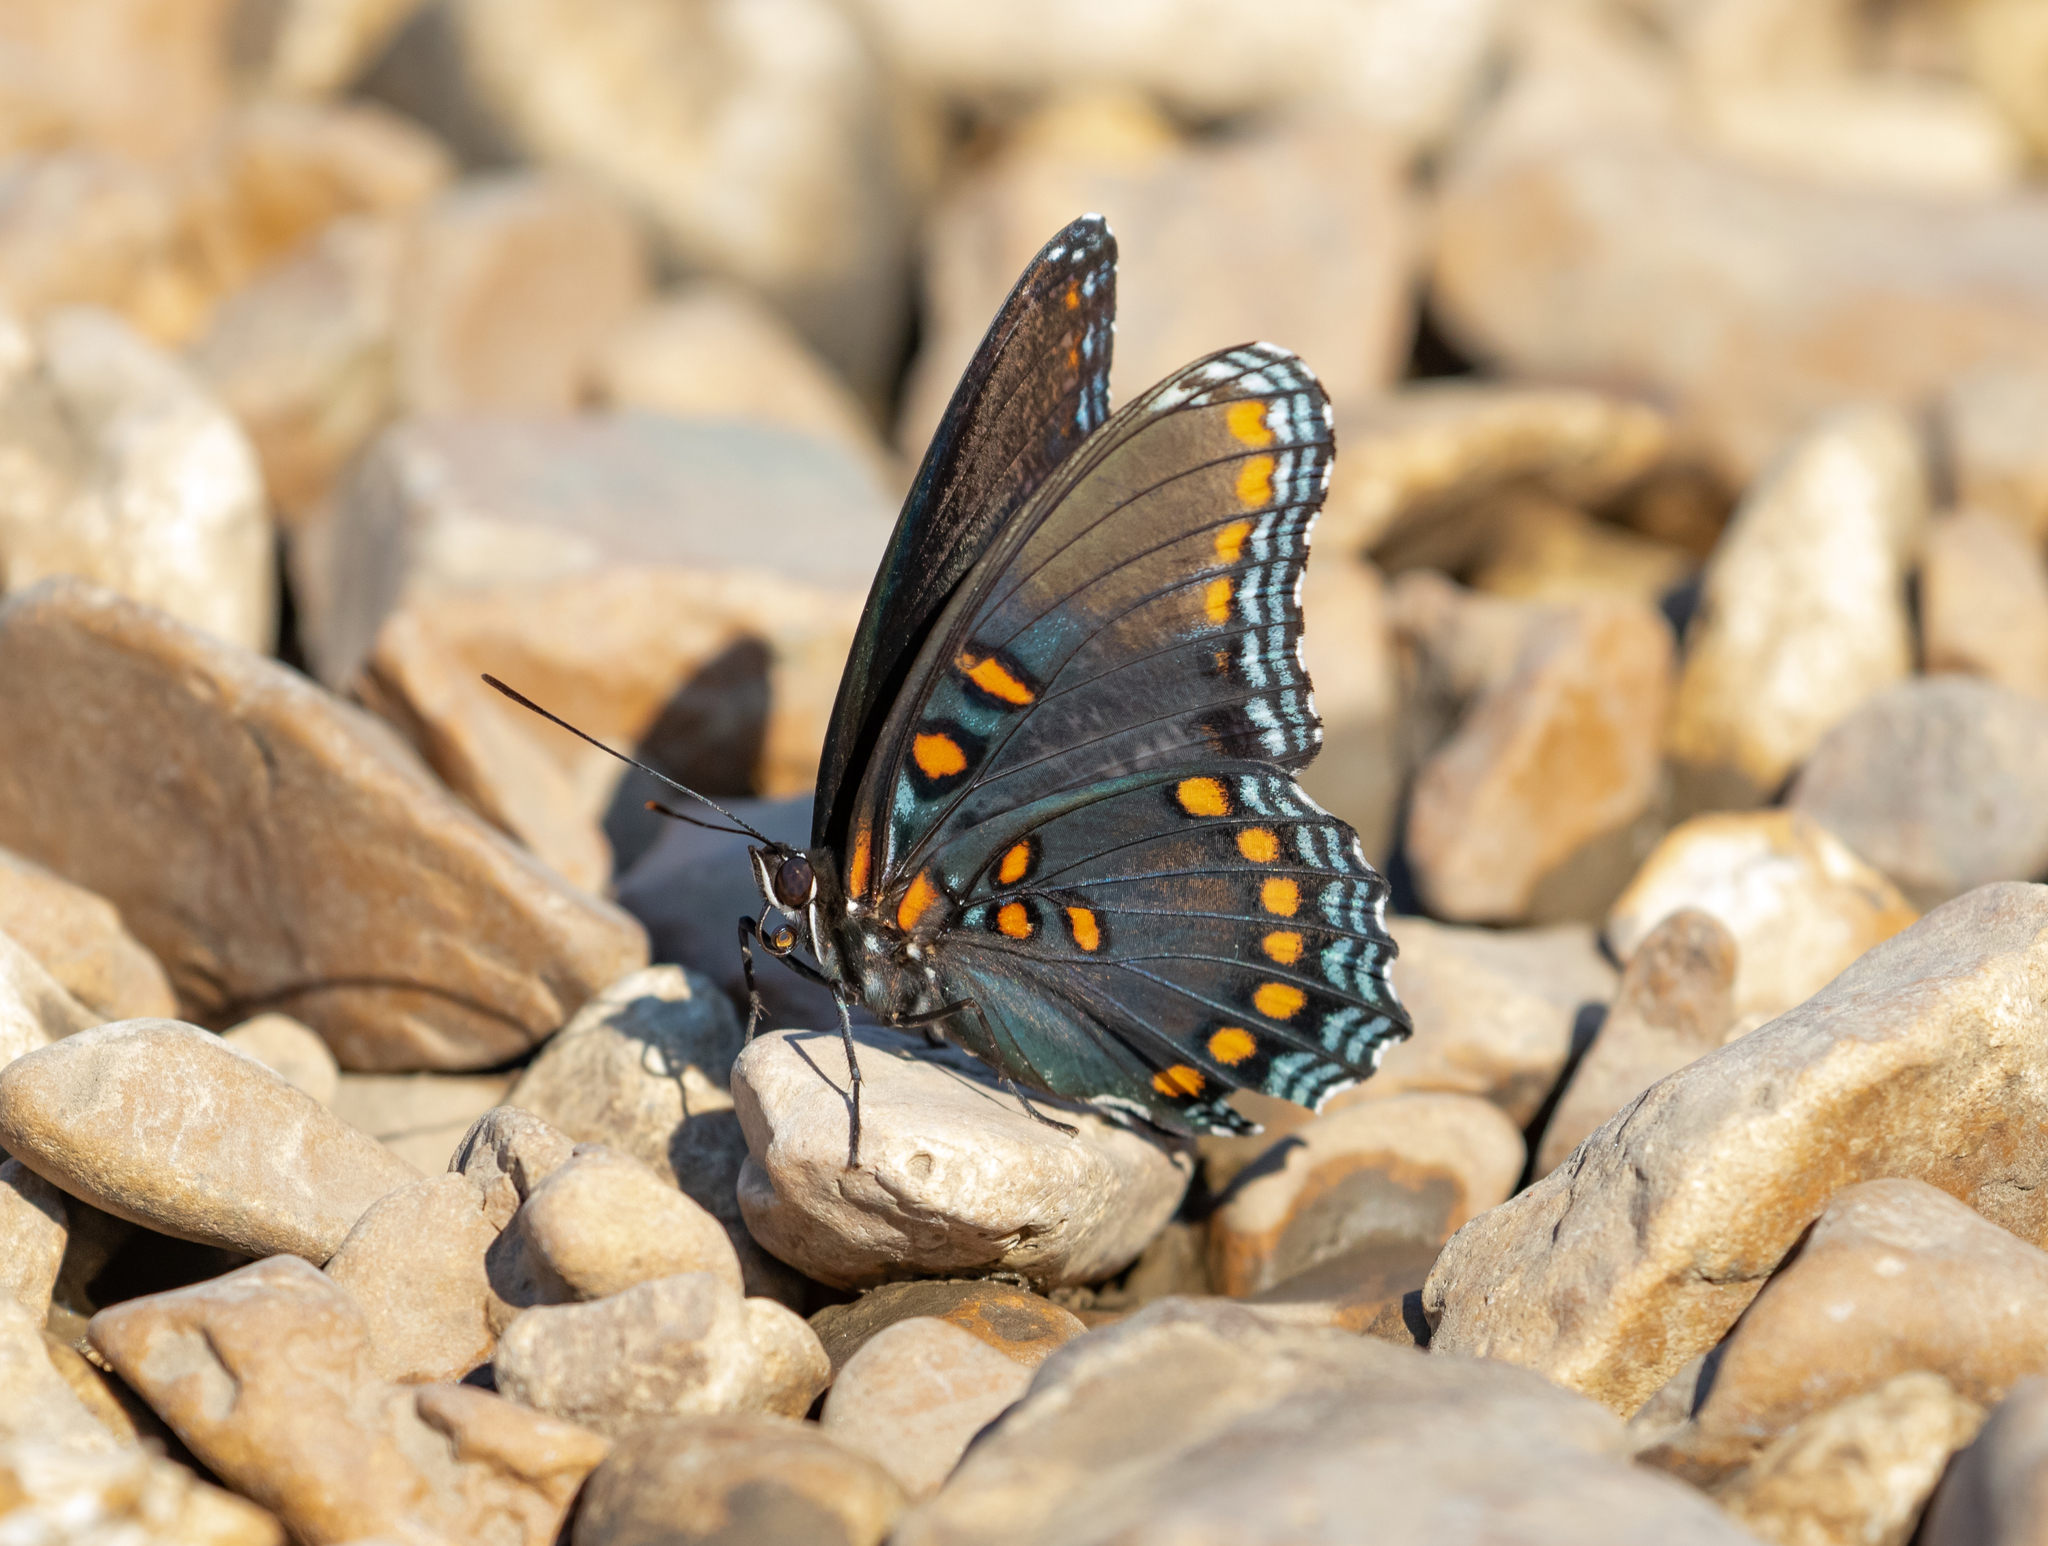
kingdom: Animalia
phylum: Arthropoda
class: Insecta
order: Lepidoptera
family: Nymphalidae
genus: Limenitis
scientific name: Limenitis astyanax
